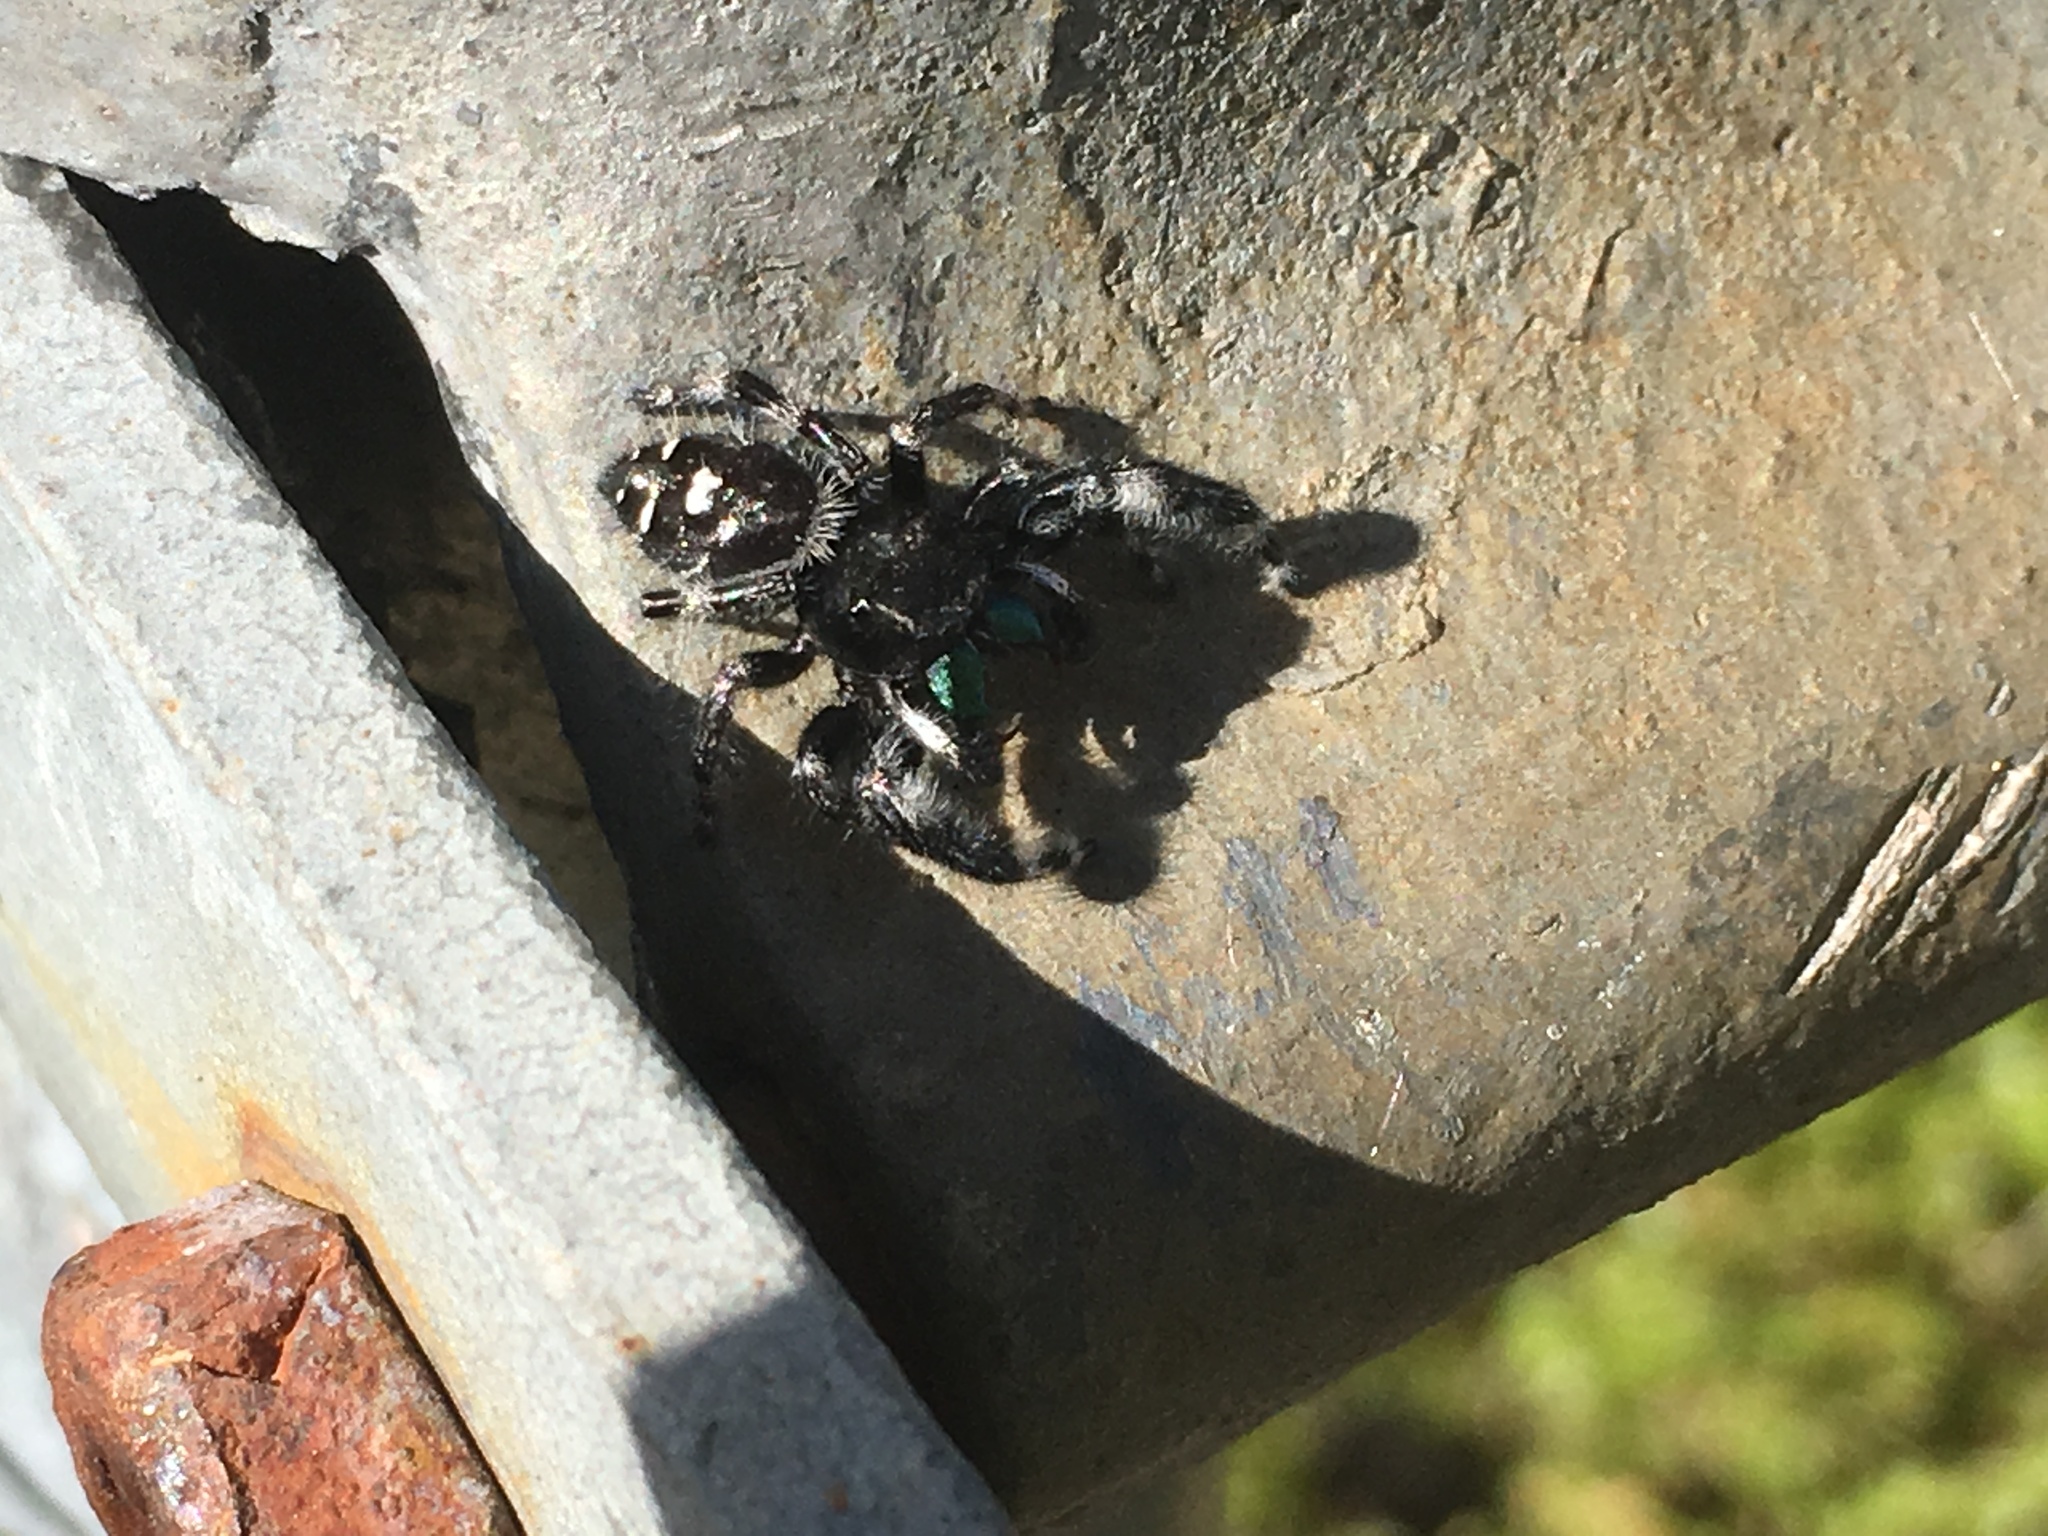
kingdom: Animalia
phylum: Arthropoda
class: Arachnida
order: Araneae
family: Salticidae
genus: Phidippus
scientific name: Phidippus audax
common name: Bold jumper
